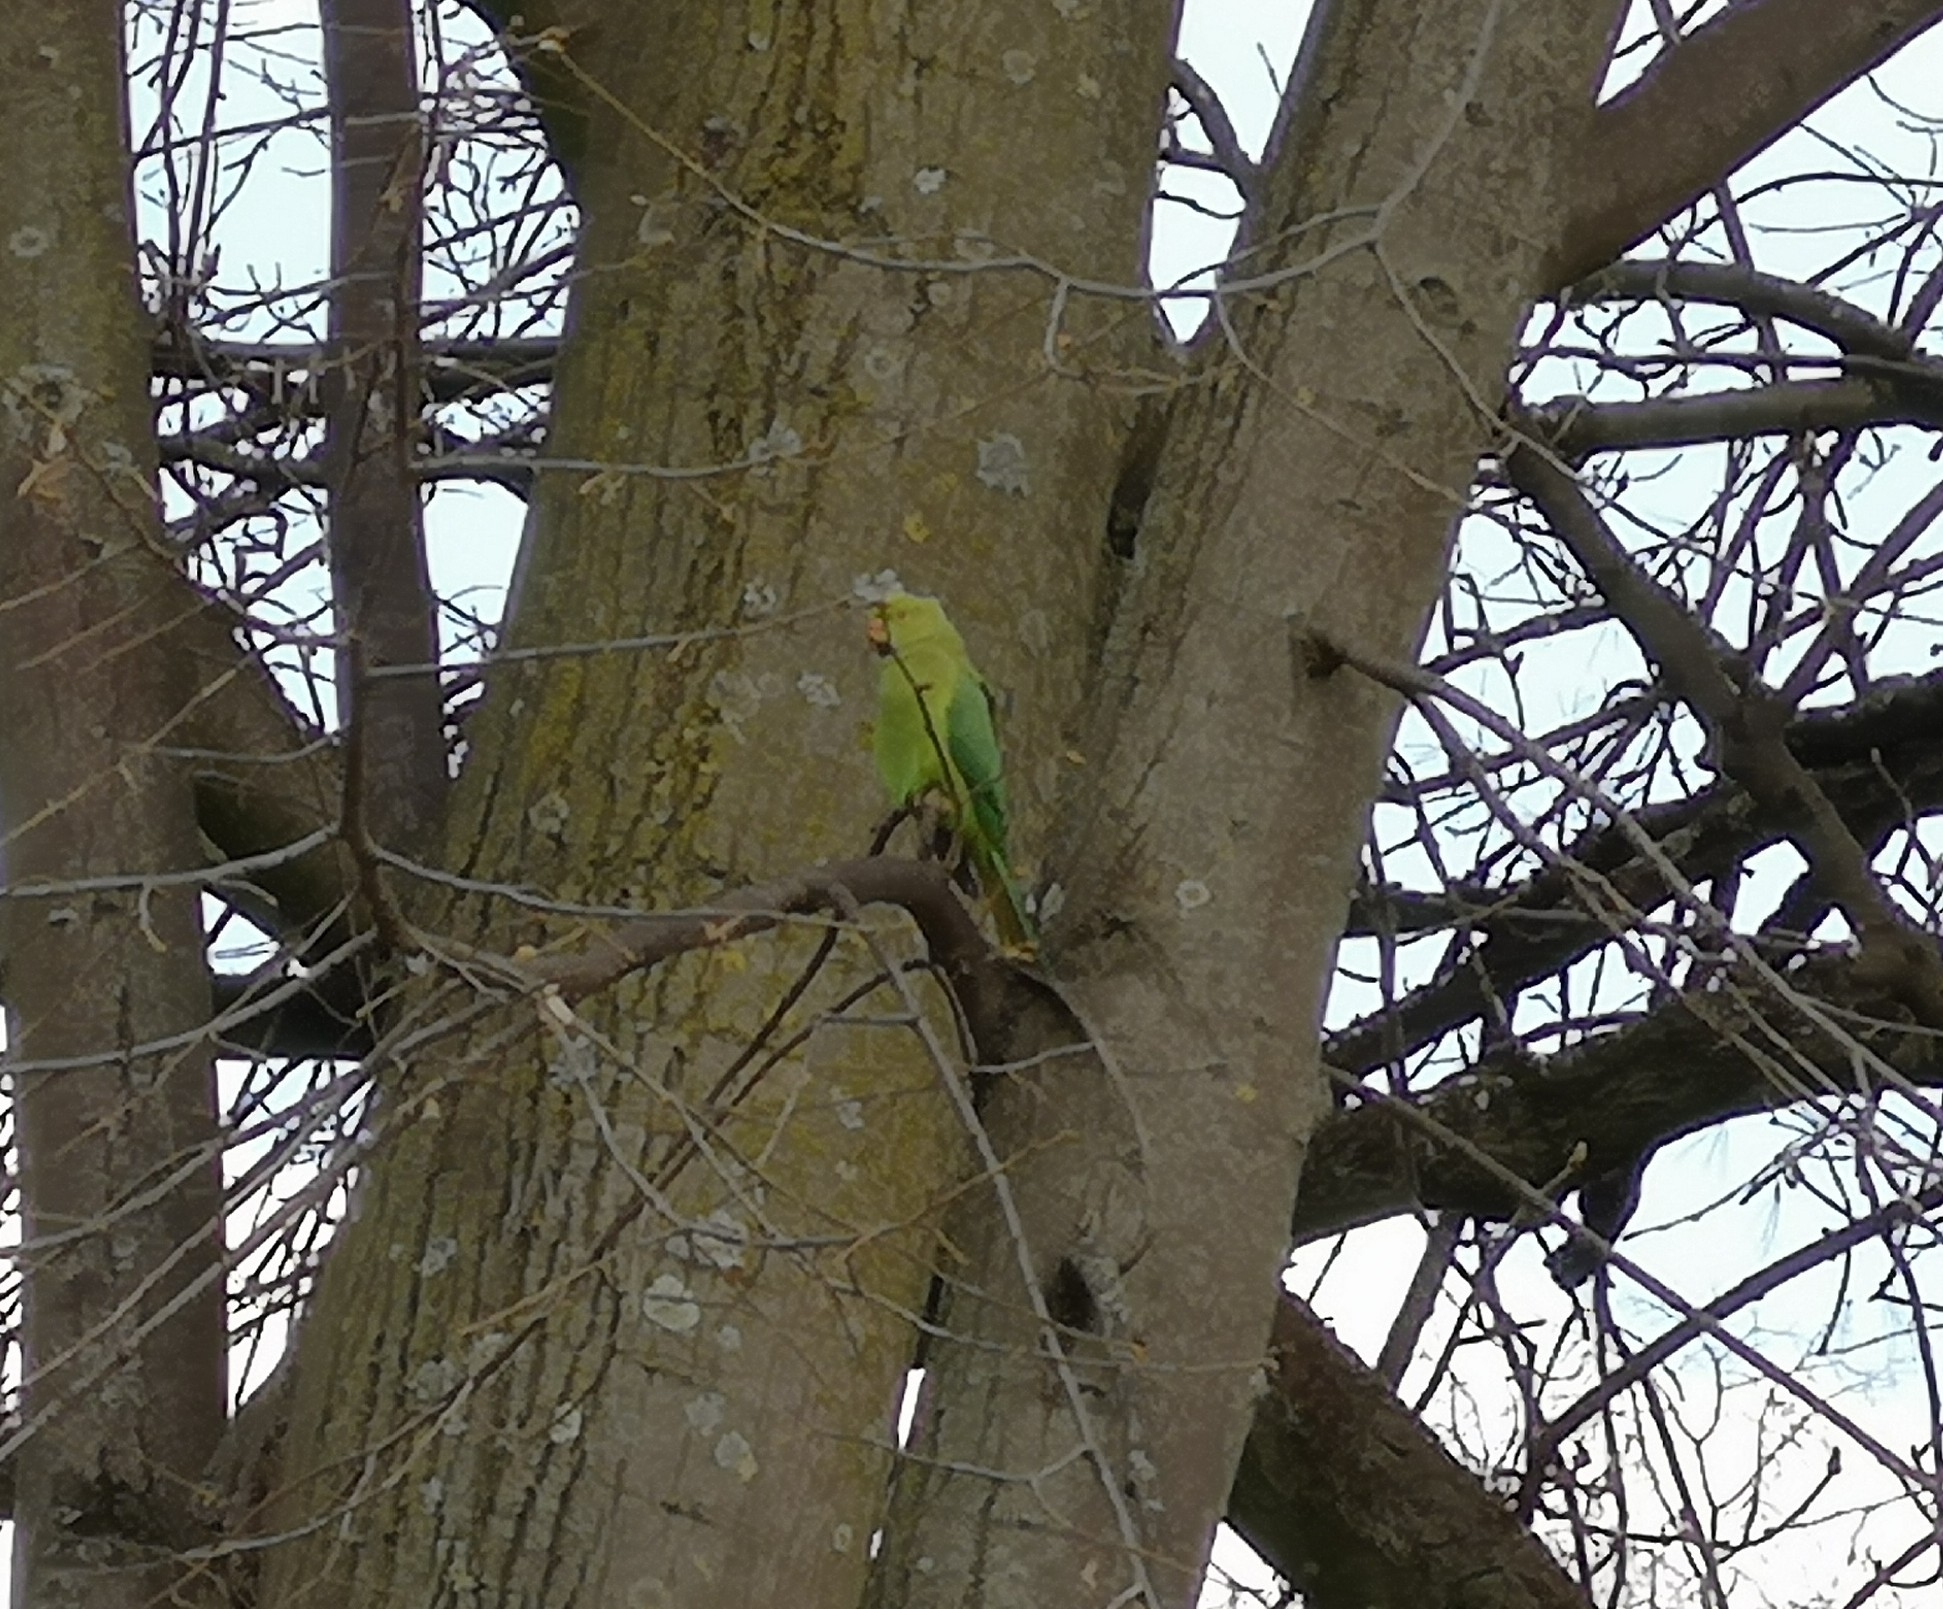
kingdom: Animalia
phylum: Chordata
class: Aves
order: Psittaciformes
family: Psittacidae
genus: Psittacula
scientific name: Psittacula krameri
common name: Rose-ringed parakeet
